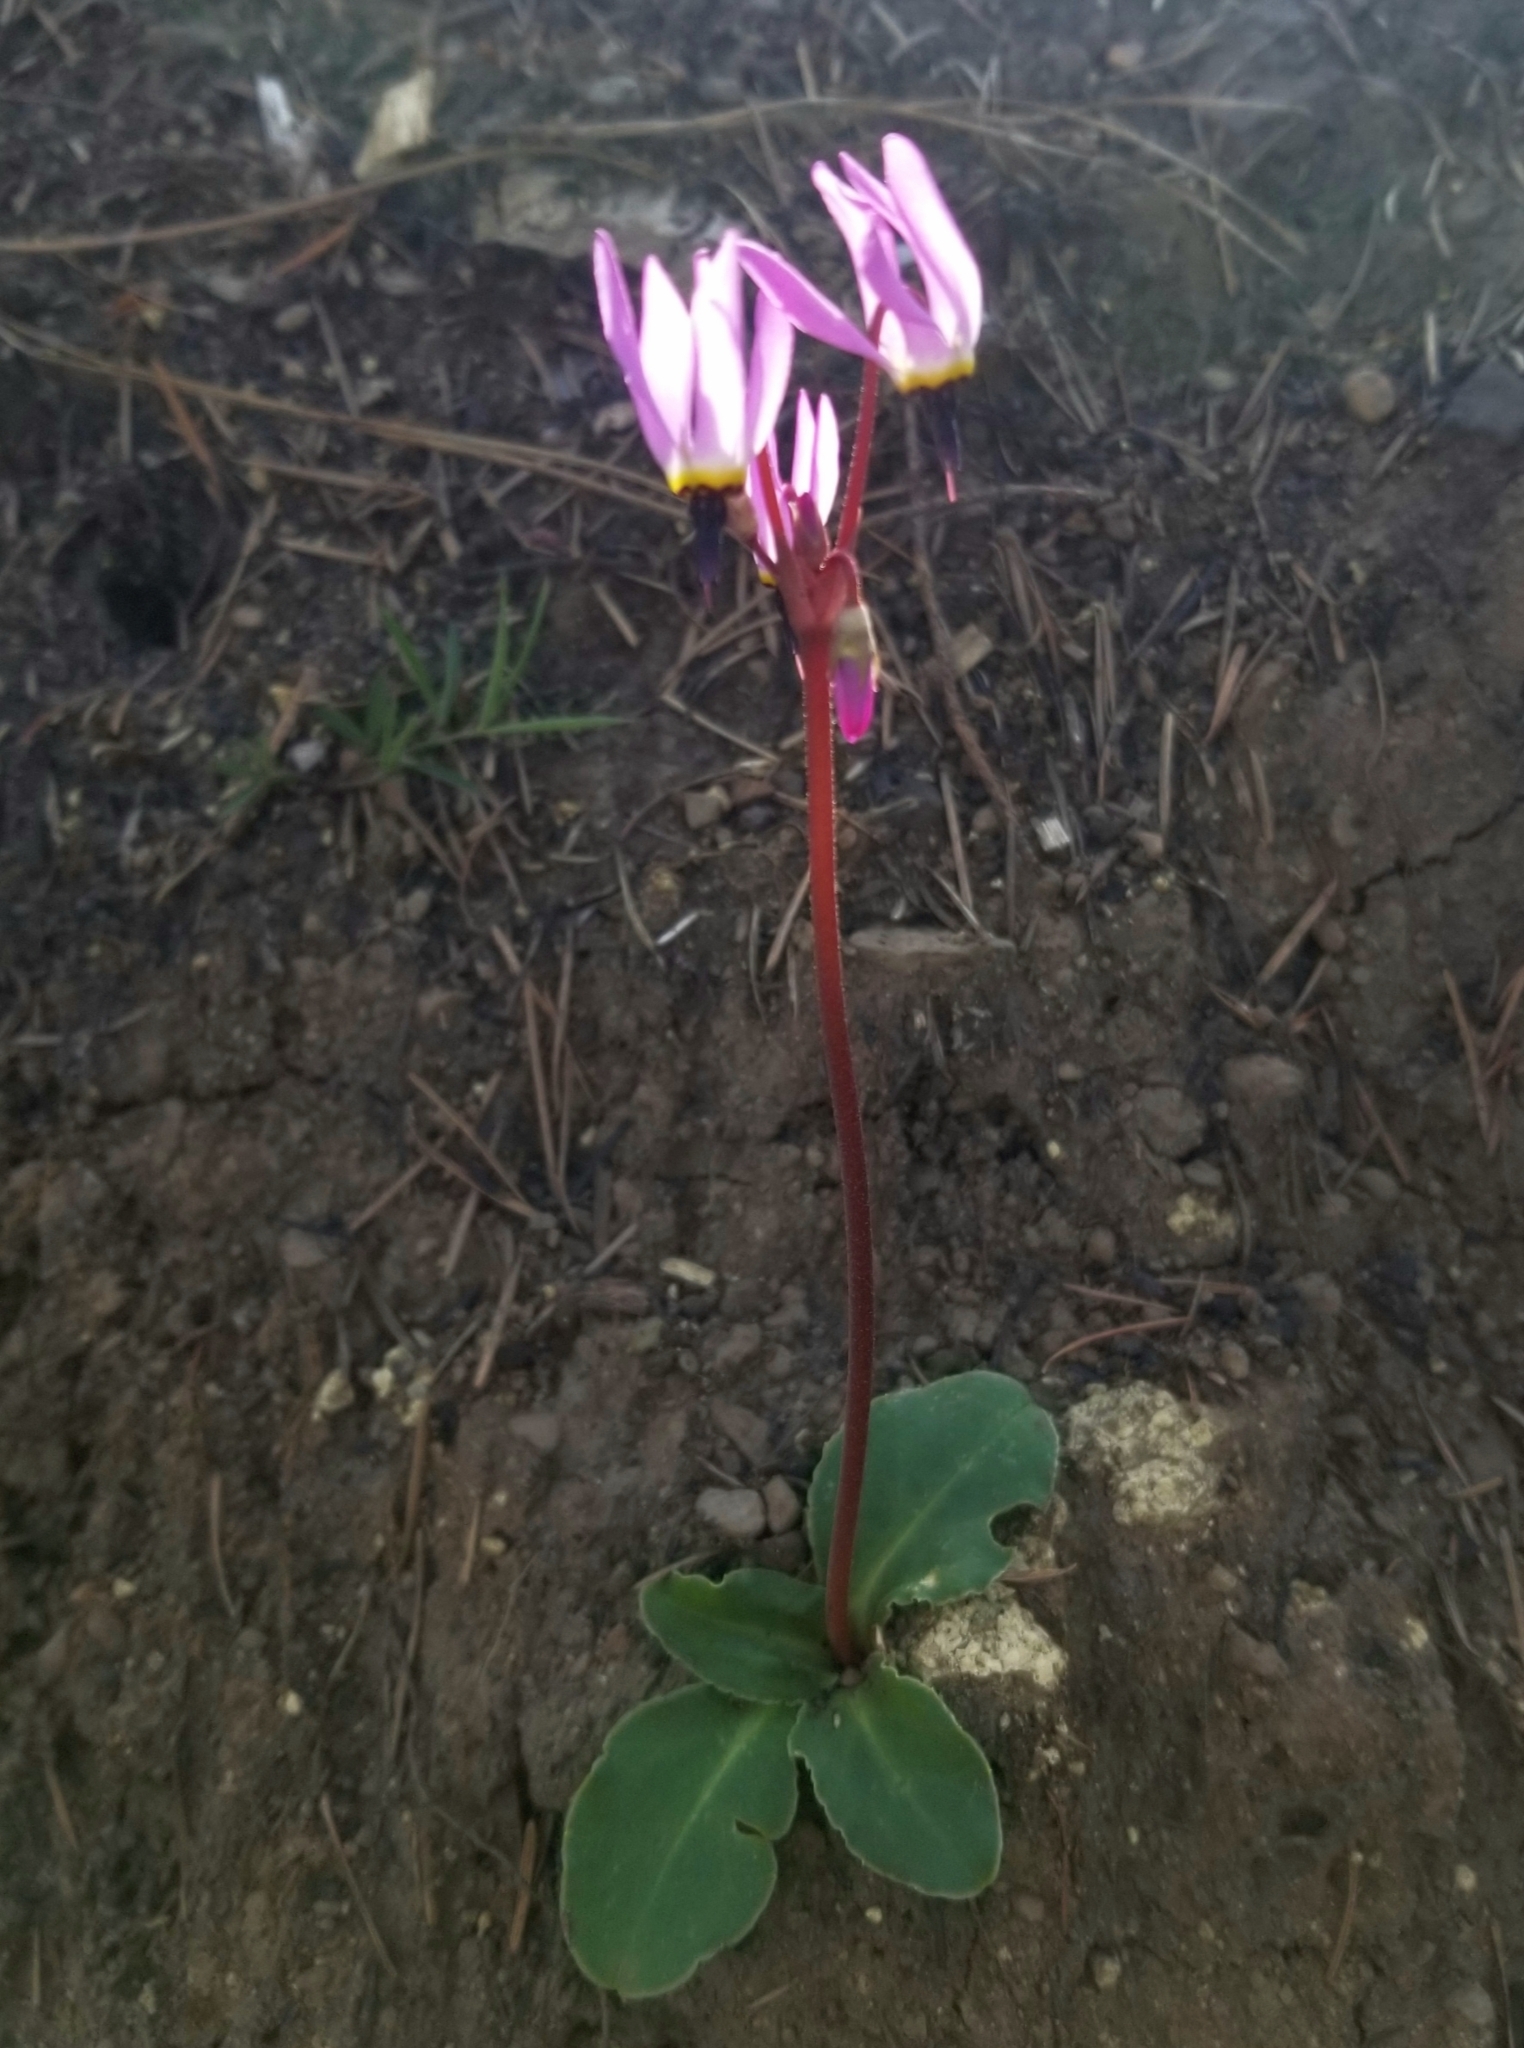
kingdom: Plantae
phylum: Tracheophyta
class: Magnoliopsida
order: Ericales
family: Primulaceae
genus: Dodecatheon
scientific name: Dodecatheon hendersonii
